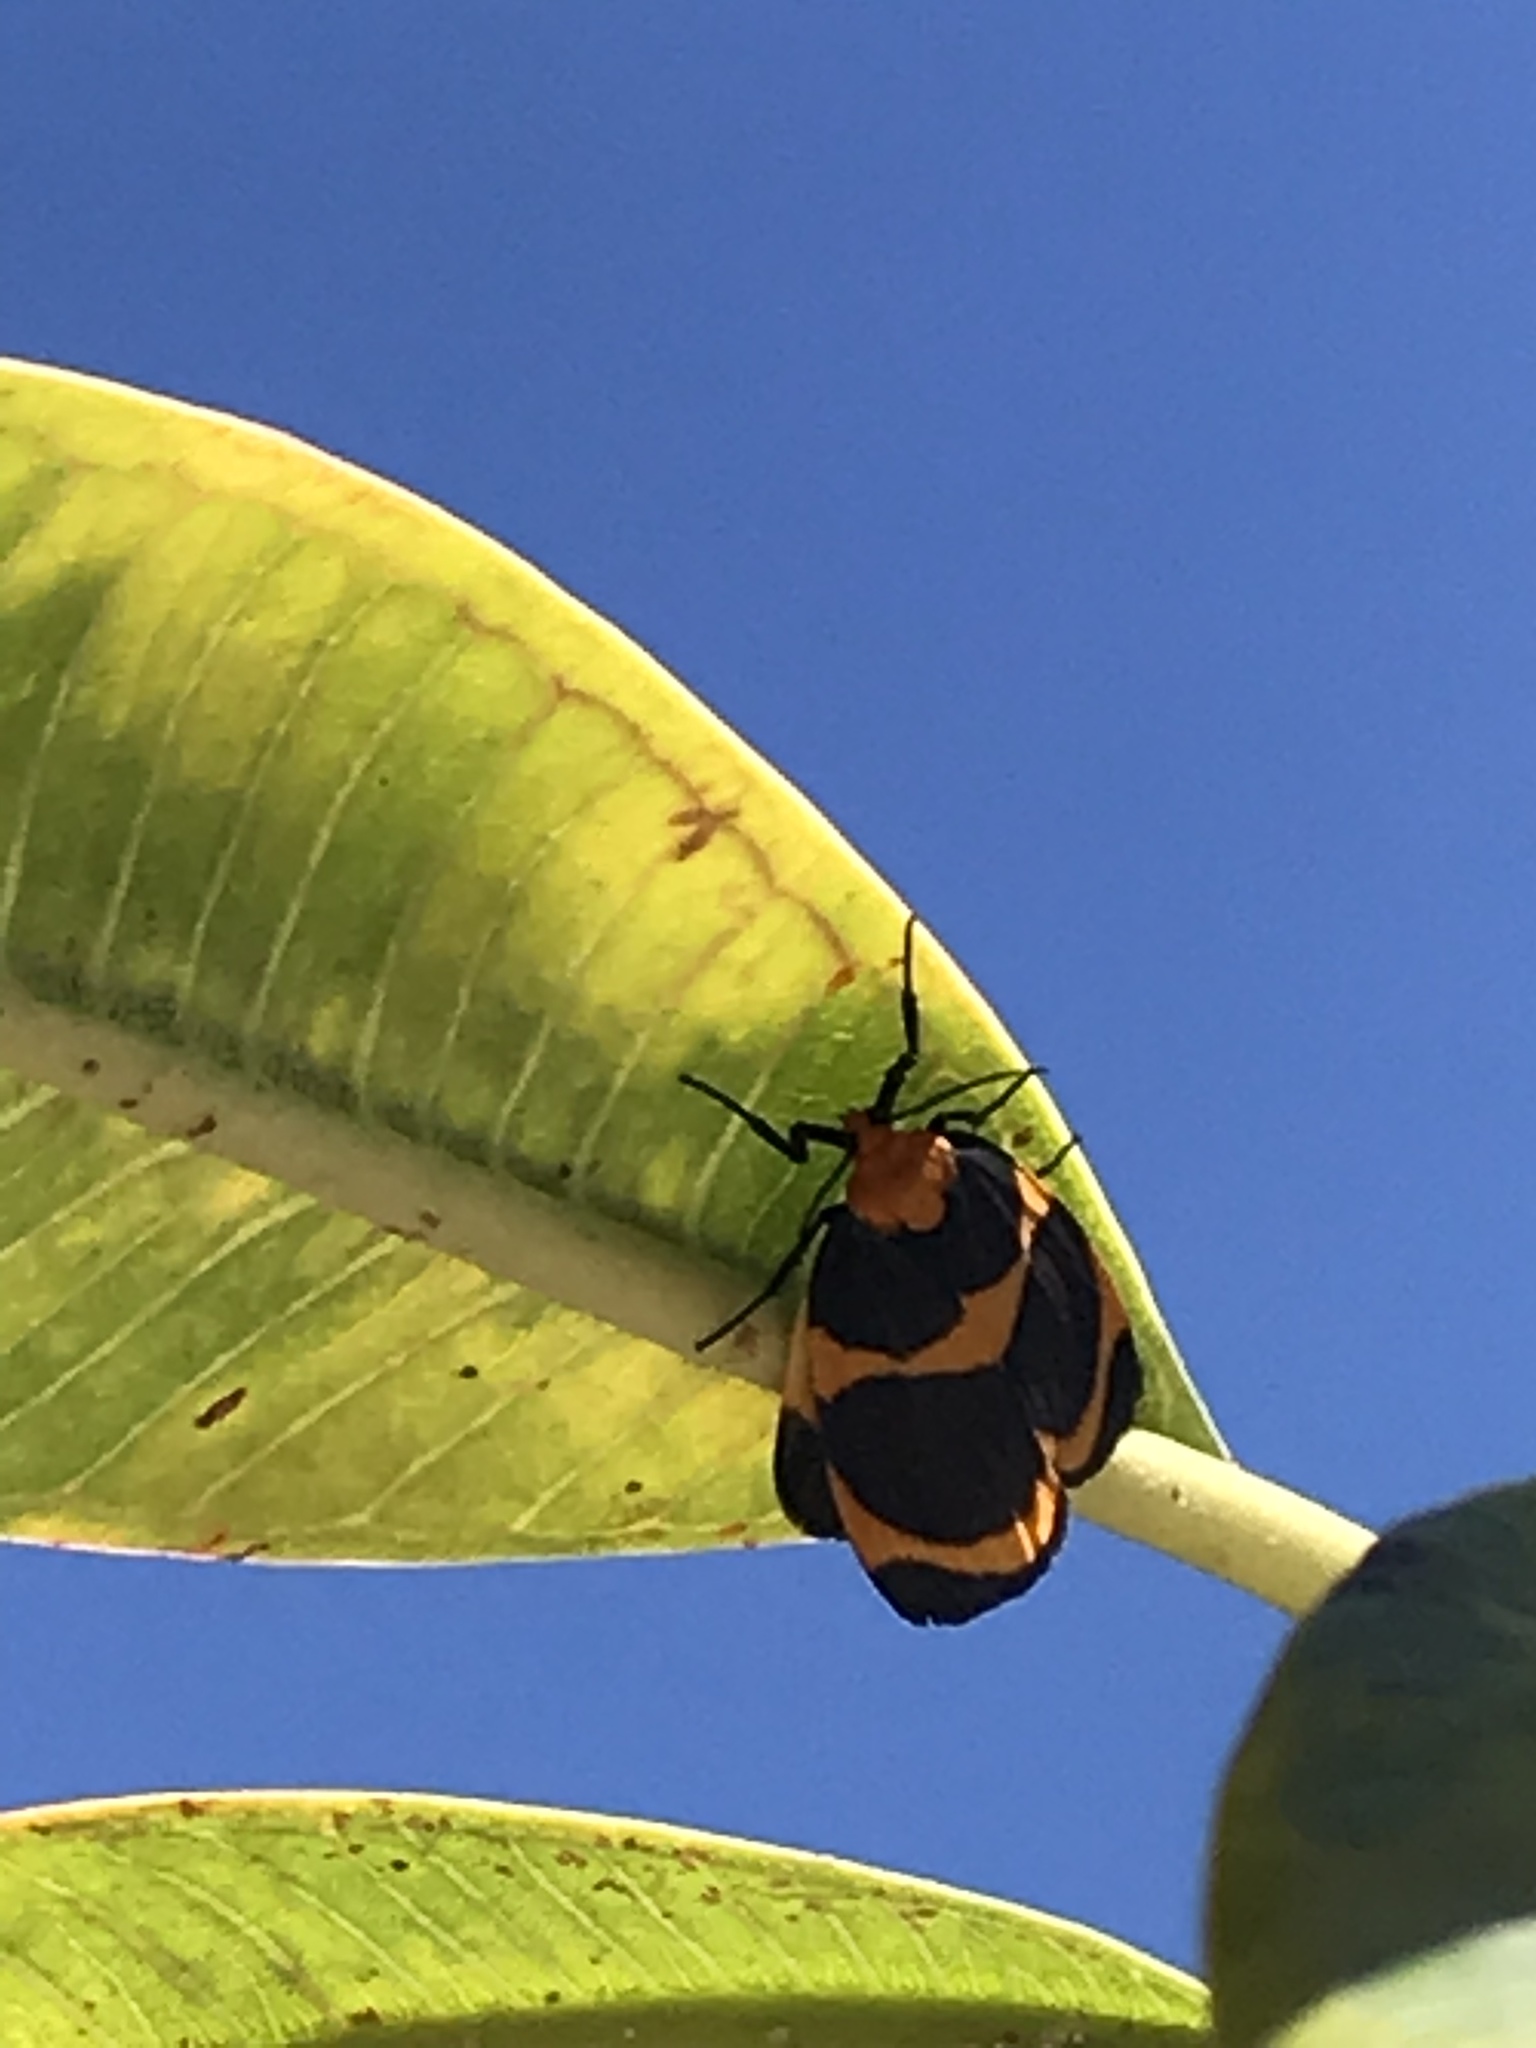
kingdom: Animalia
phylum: Arthropoda
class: Insecta
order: Lepidoptera
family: Erebidae
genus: Eudesmia
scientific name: Eudesmia menea
